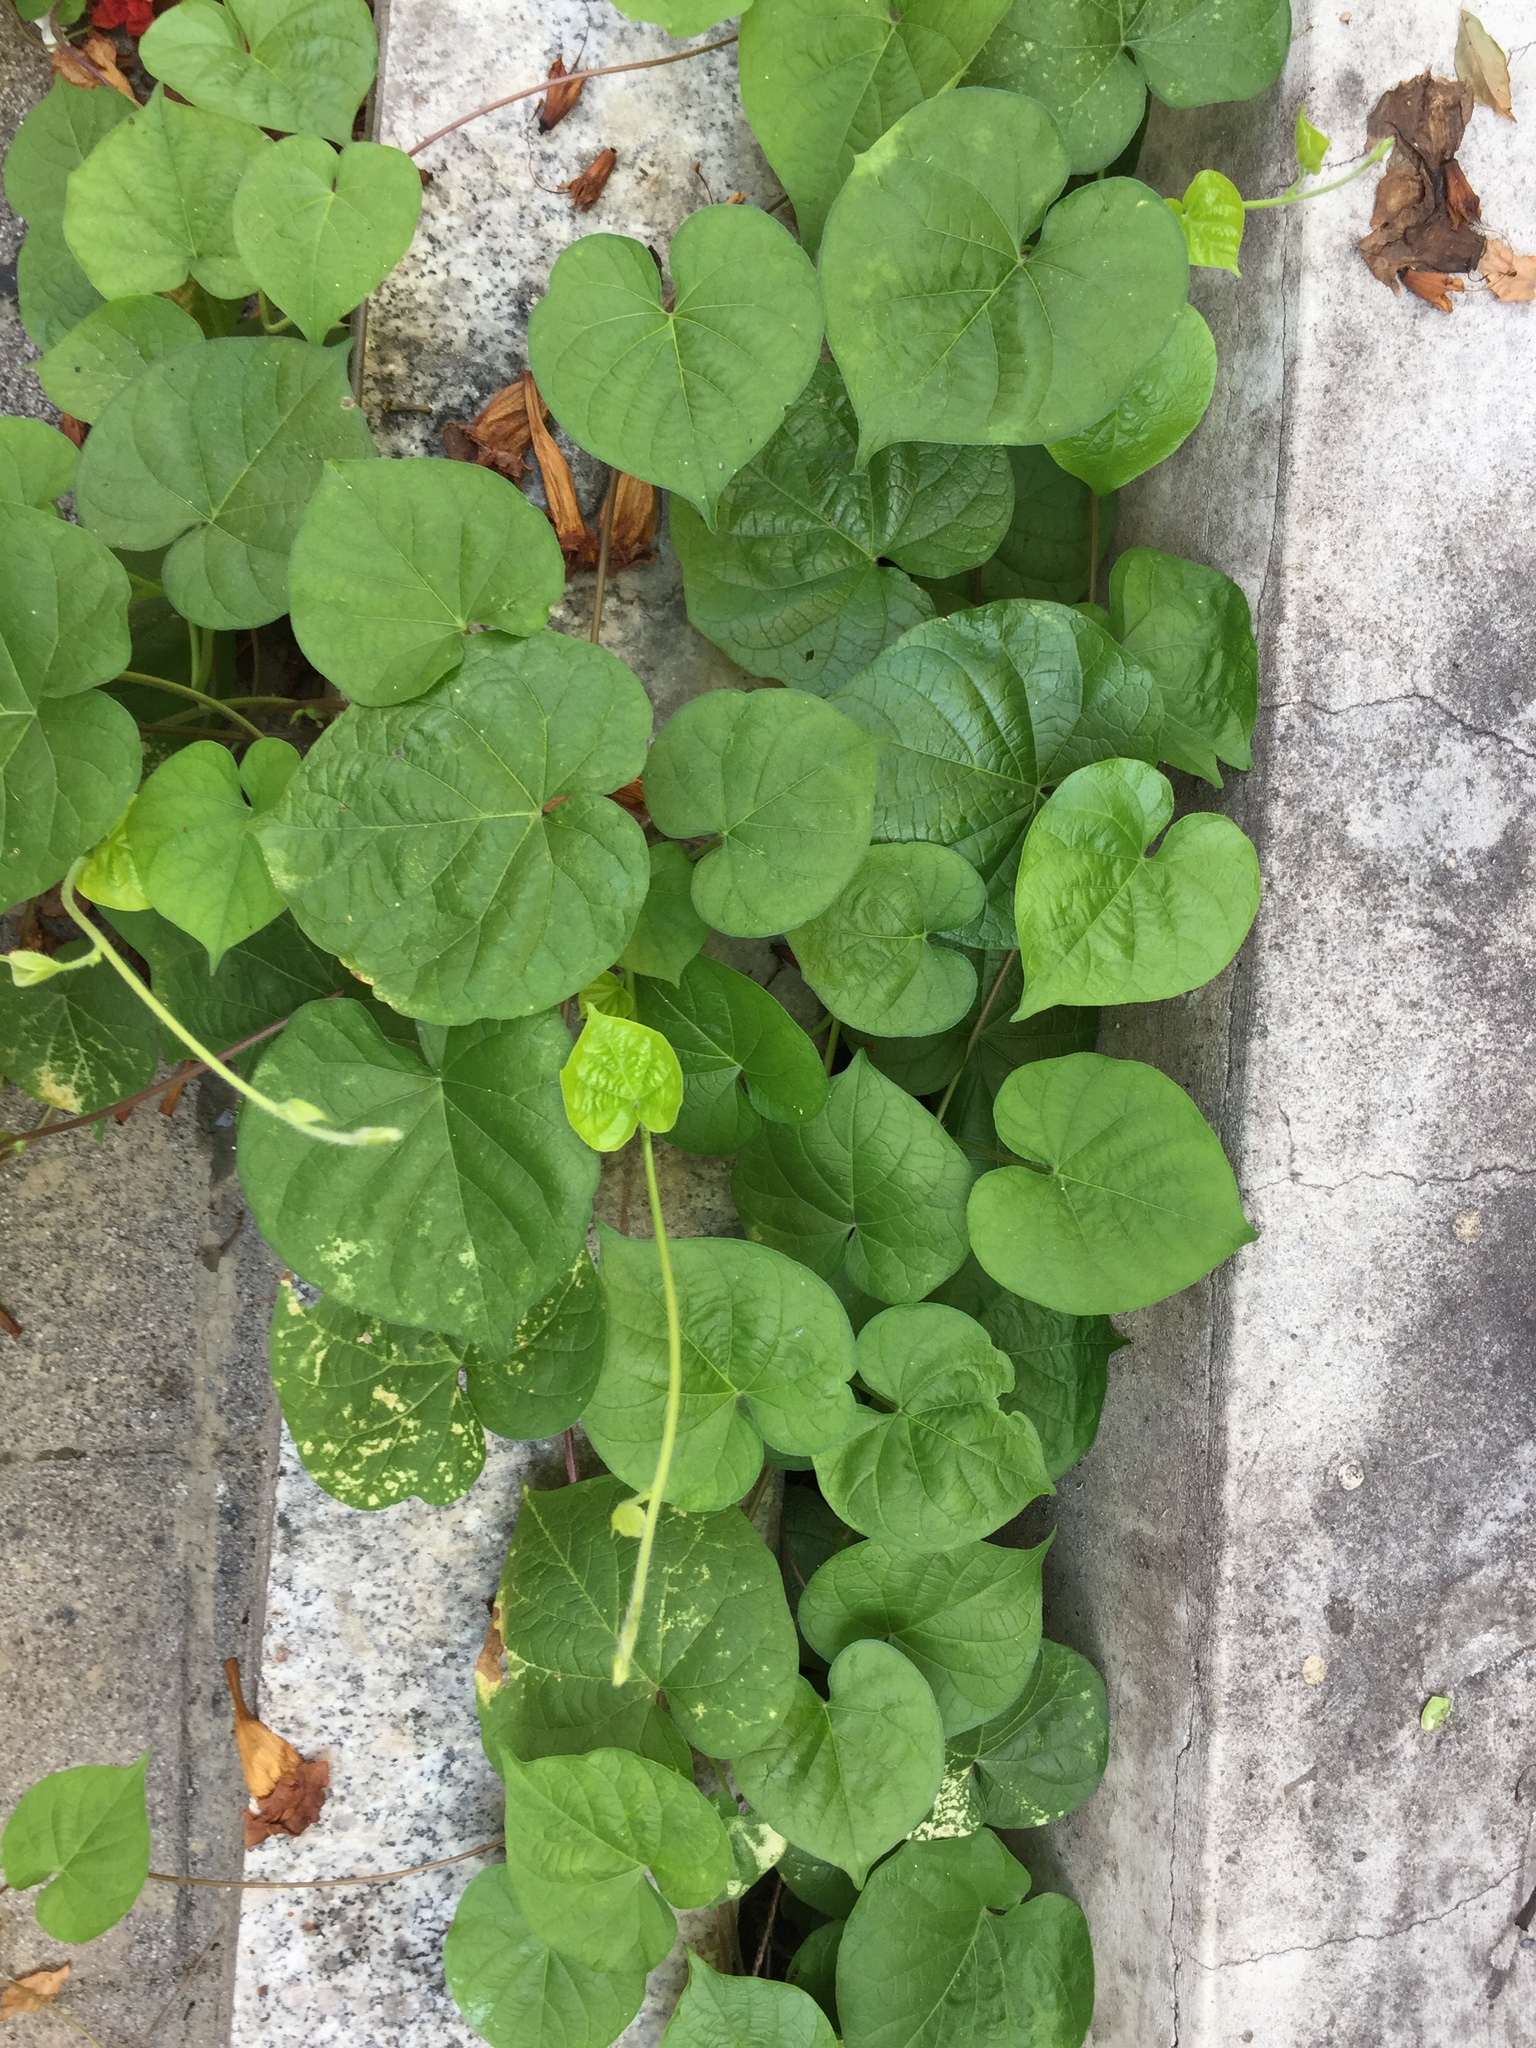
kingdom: Plantae
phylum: Tracheophyta
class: Magnoliopsida
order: Solanales
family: Convolvulaceae
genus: Ipomoea
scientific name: Ipomoea purpurea
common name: Common morning-glory
